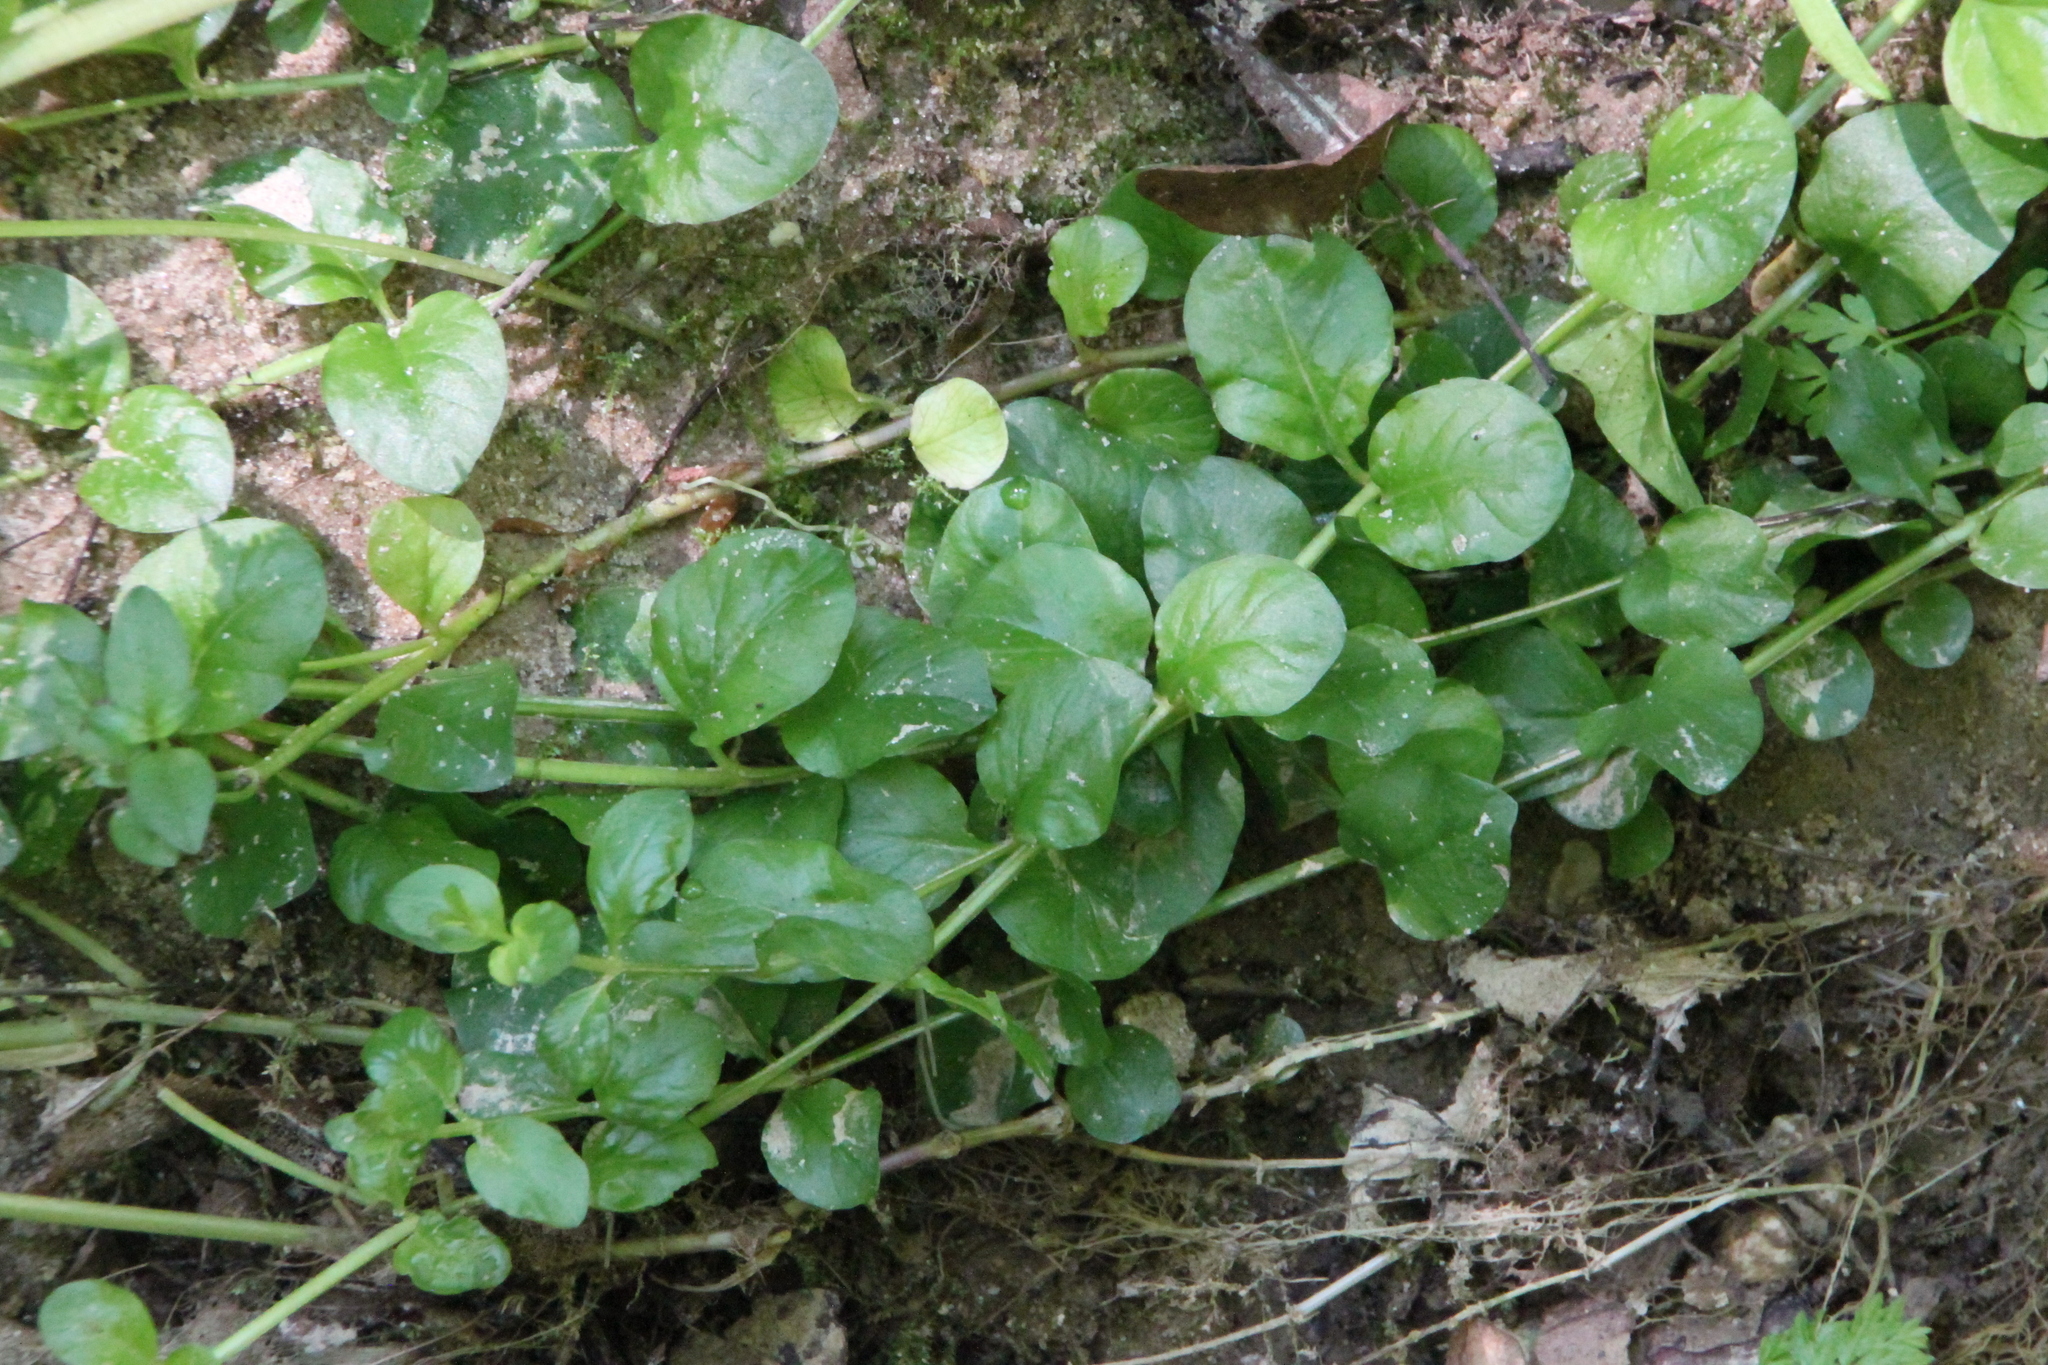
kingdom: Plantae
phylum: Tracheophyta
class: Magnoliopsida
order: Ericales
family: Primulaceae
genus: Lysimachia
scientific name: Lysimachia nummularia
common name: Moneywort
